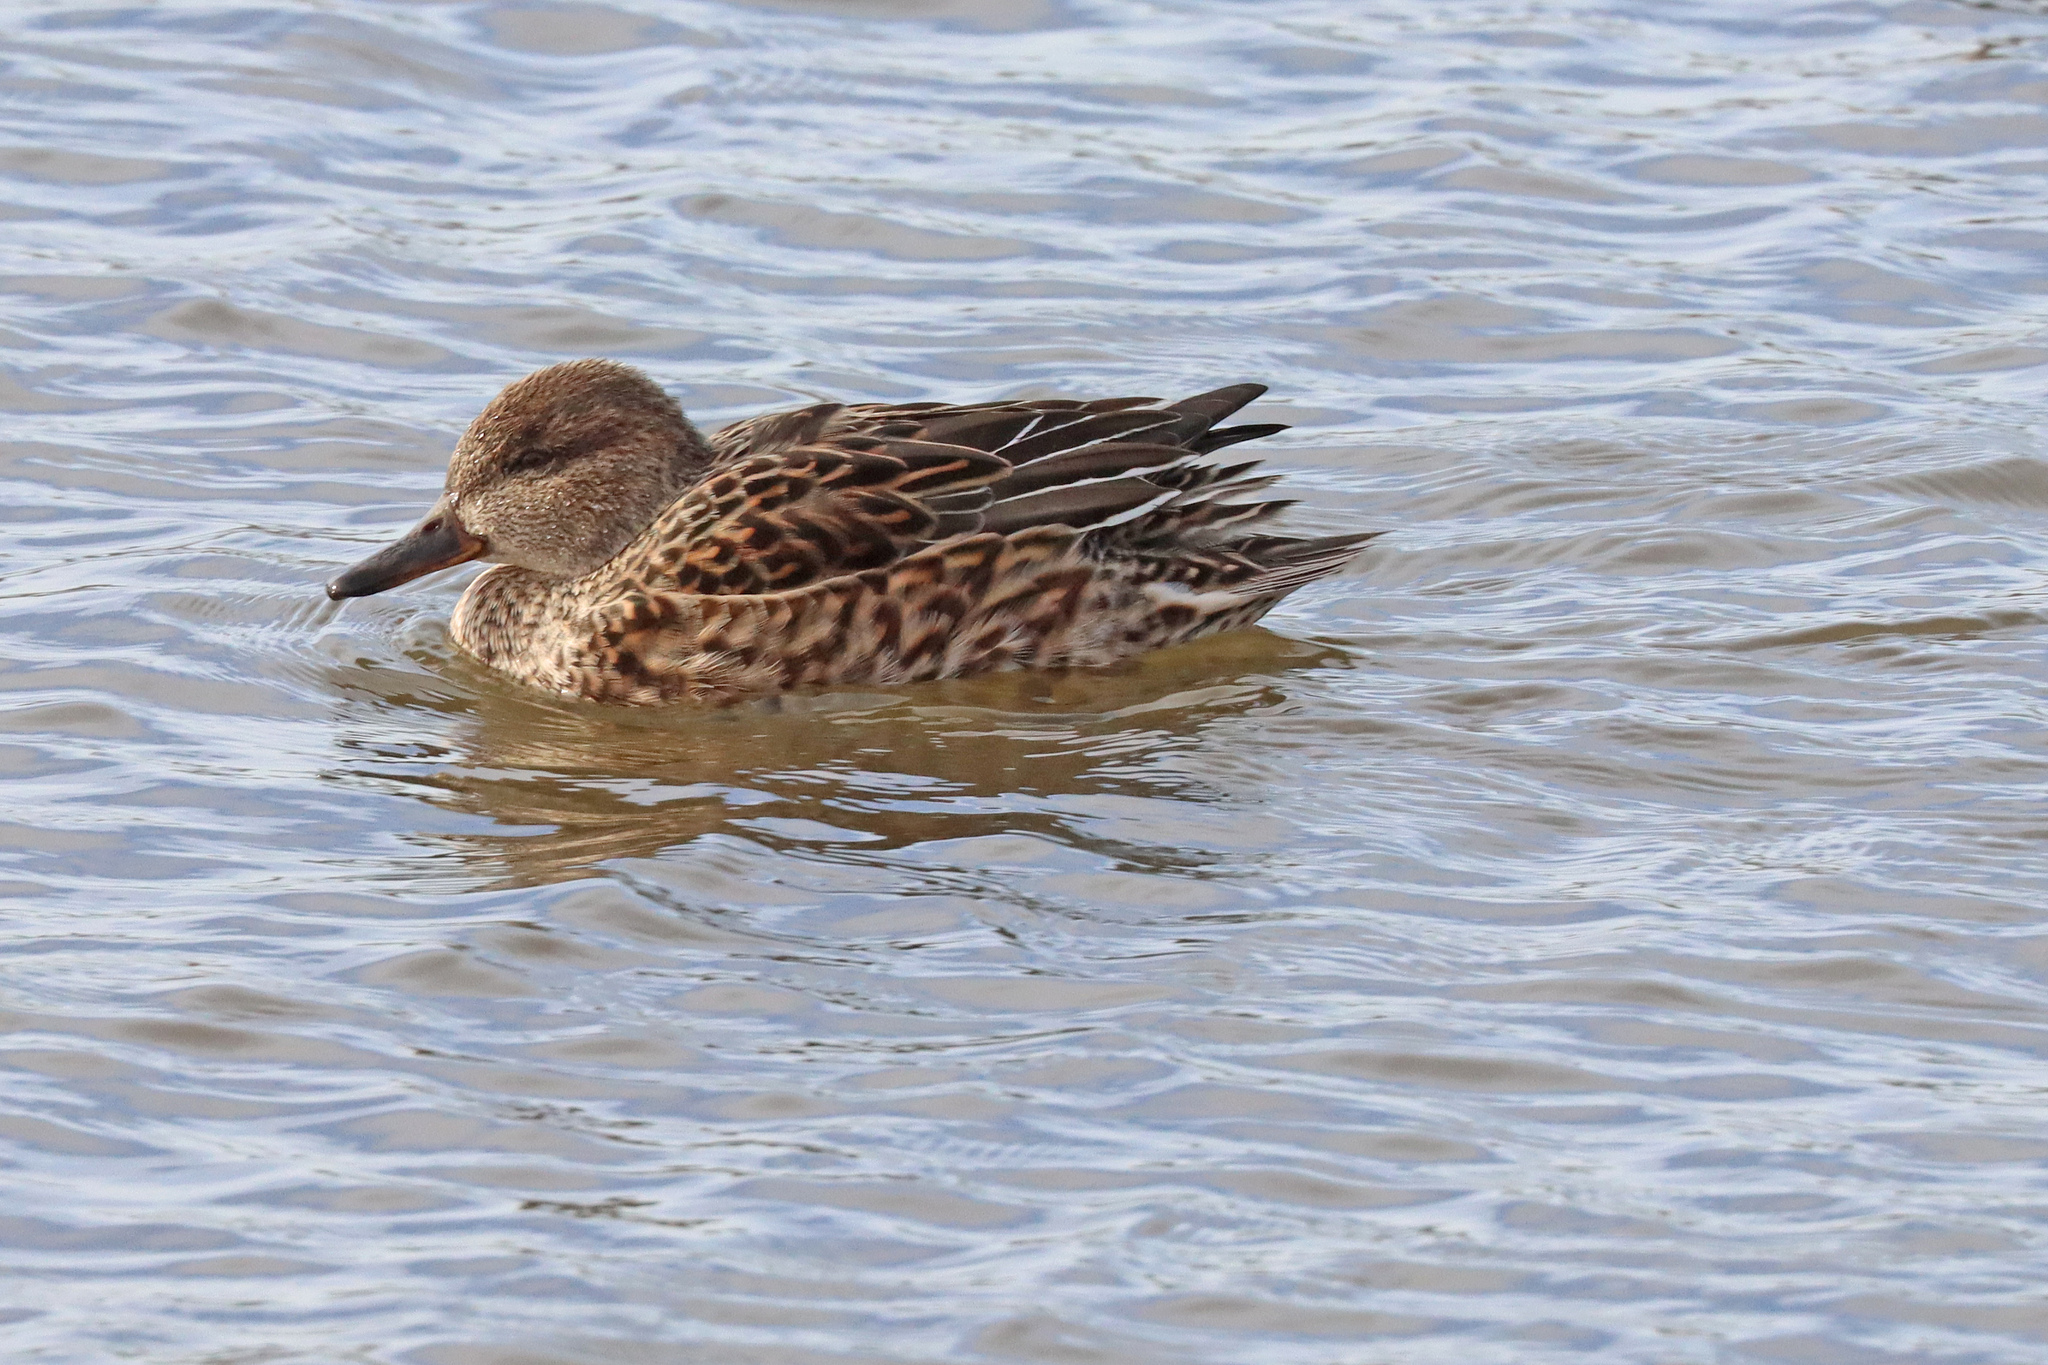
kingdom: Animalia
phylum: Chordata
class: Aves
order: Anseriformes
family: Anatidae
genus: Anas
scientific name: Anas crecca
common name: Eurasian teal
